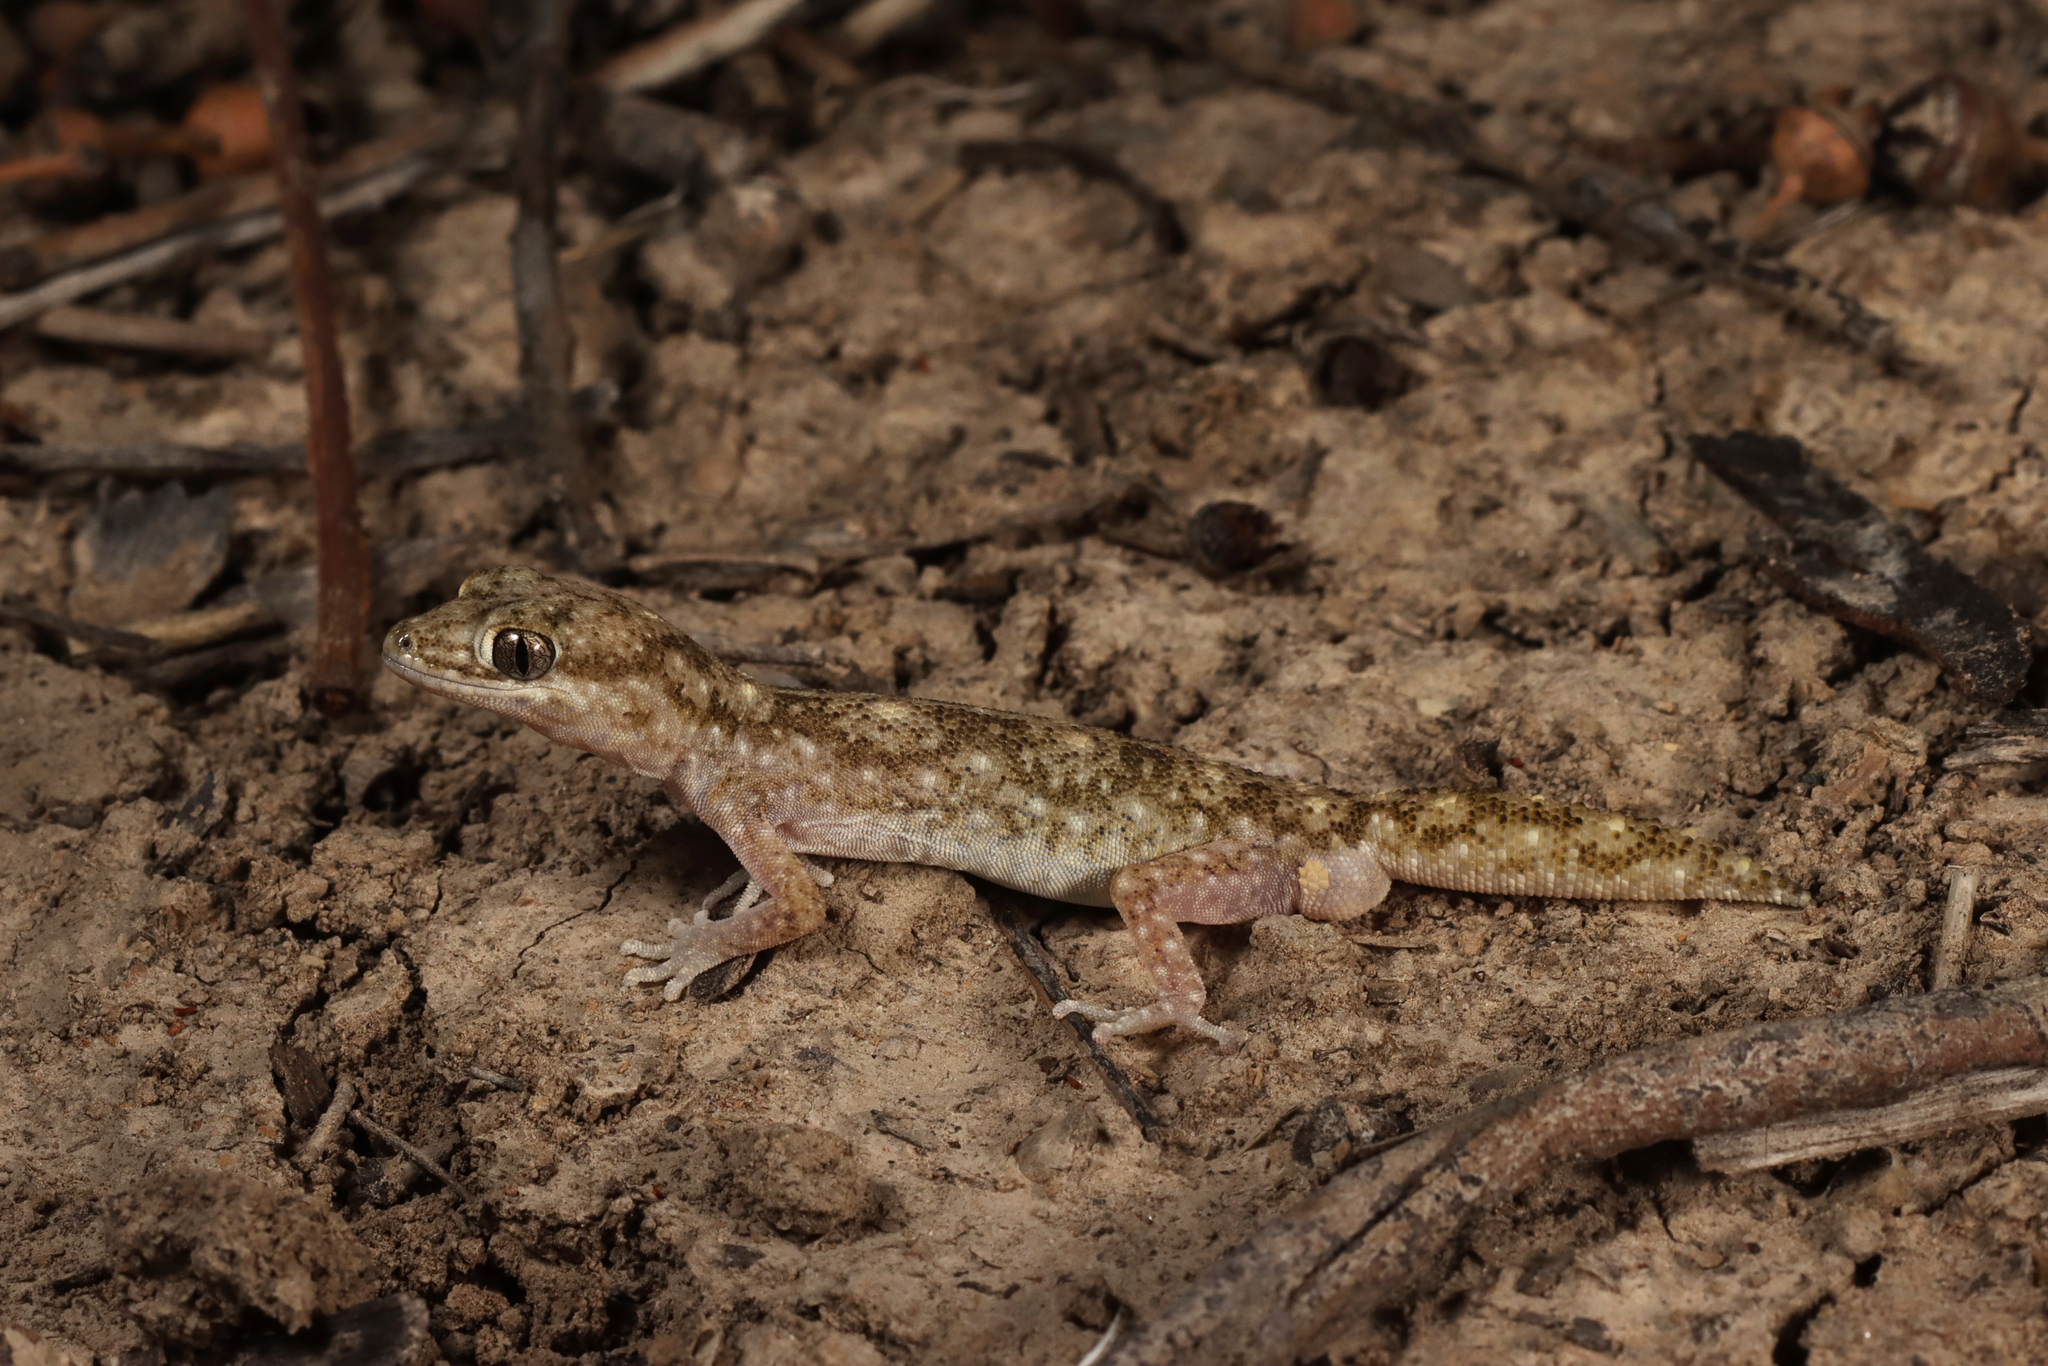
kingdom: Animalia
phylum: Chordata
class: Squamata
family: Diplodactylidae
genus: Diplodactylus
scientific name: Diplodactylus tessellatus
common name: Tesselated gecko
